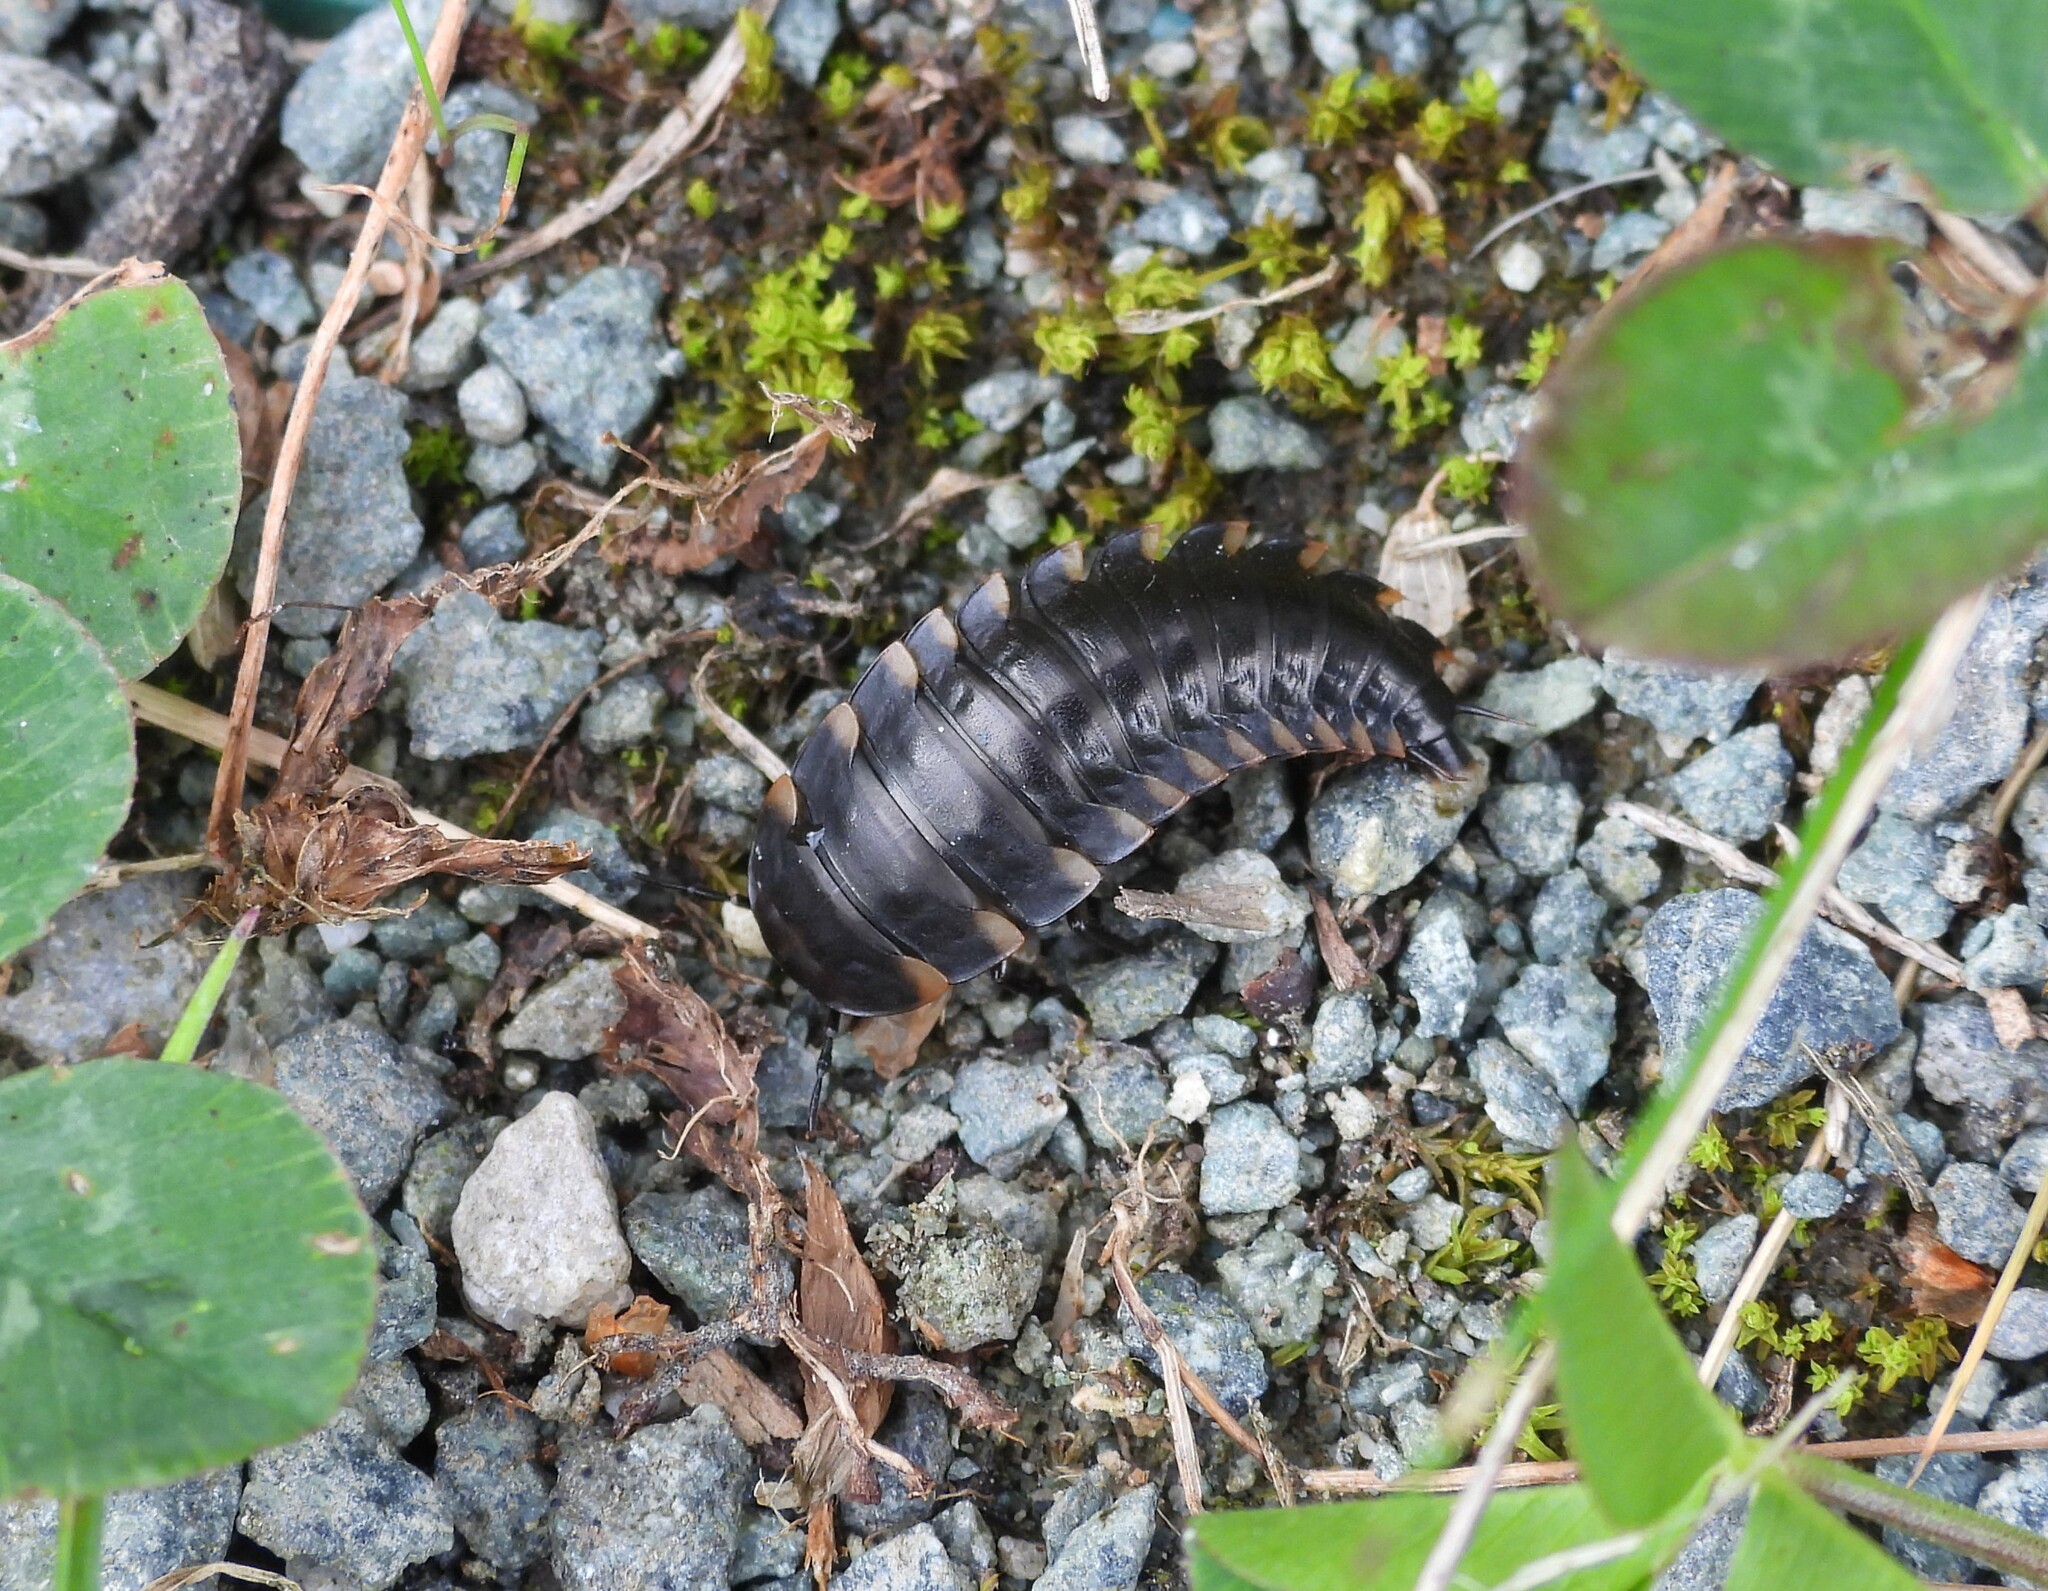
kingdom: Animalia
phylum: Arthropoda
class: Insecta
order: Coleoptera
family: Staphylinidae
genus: Silpha
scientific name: Silpha tristis
